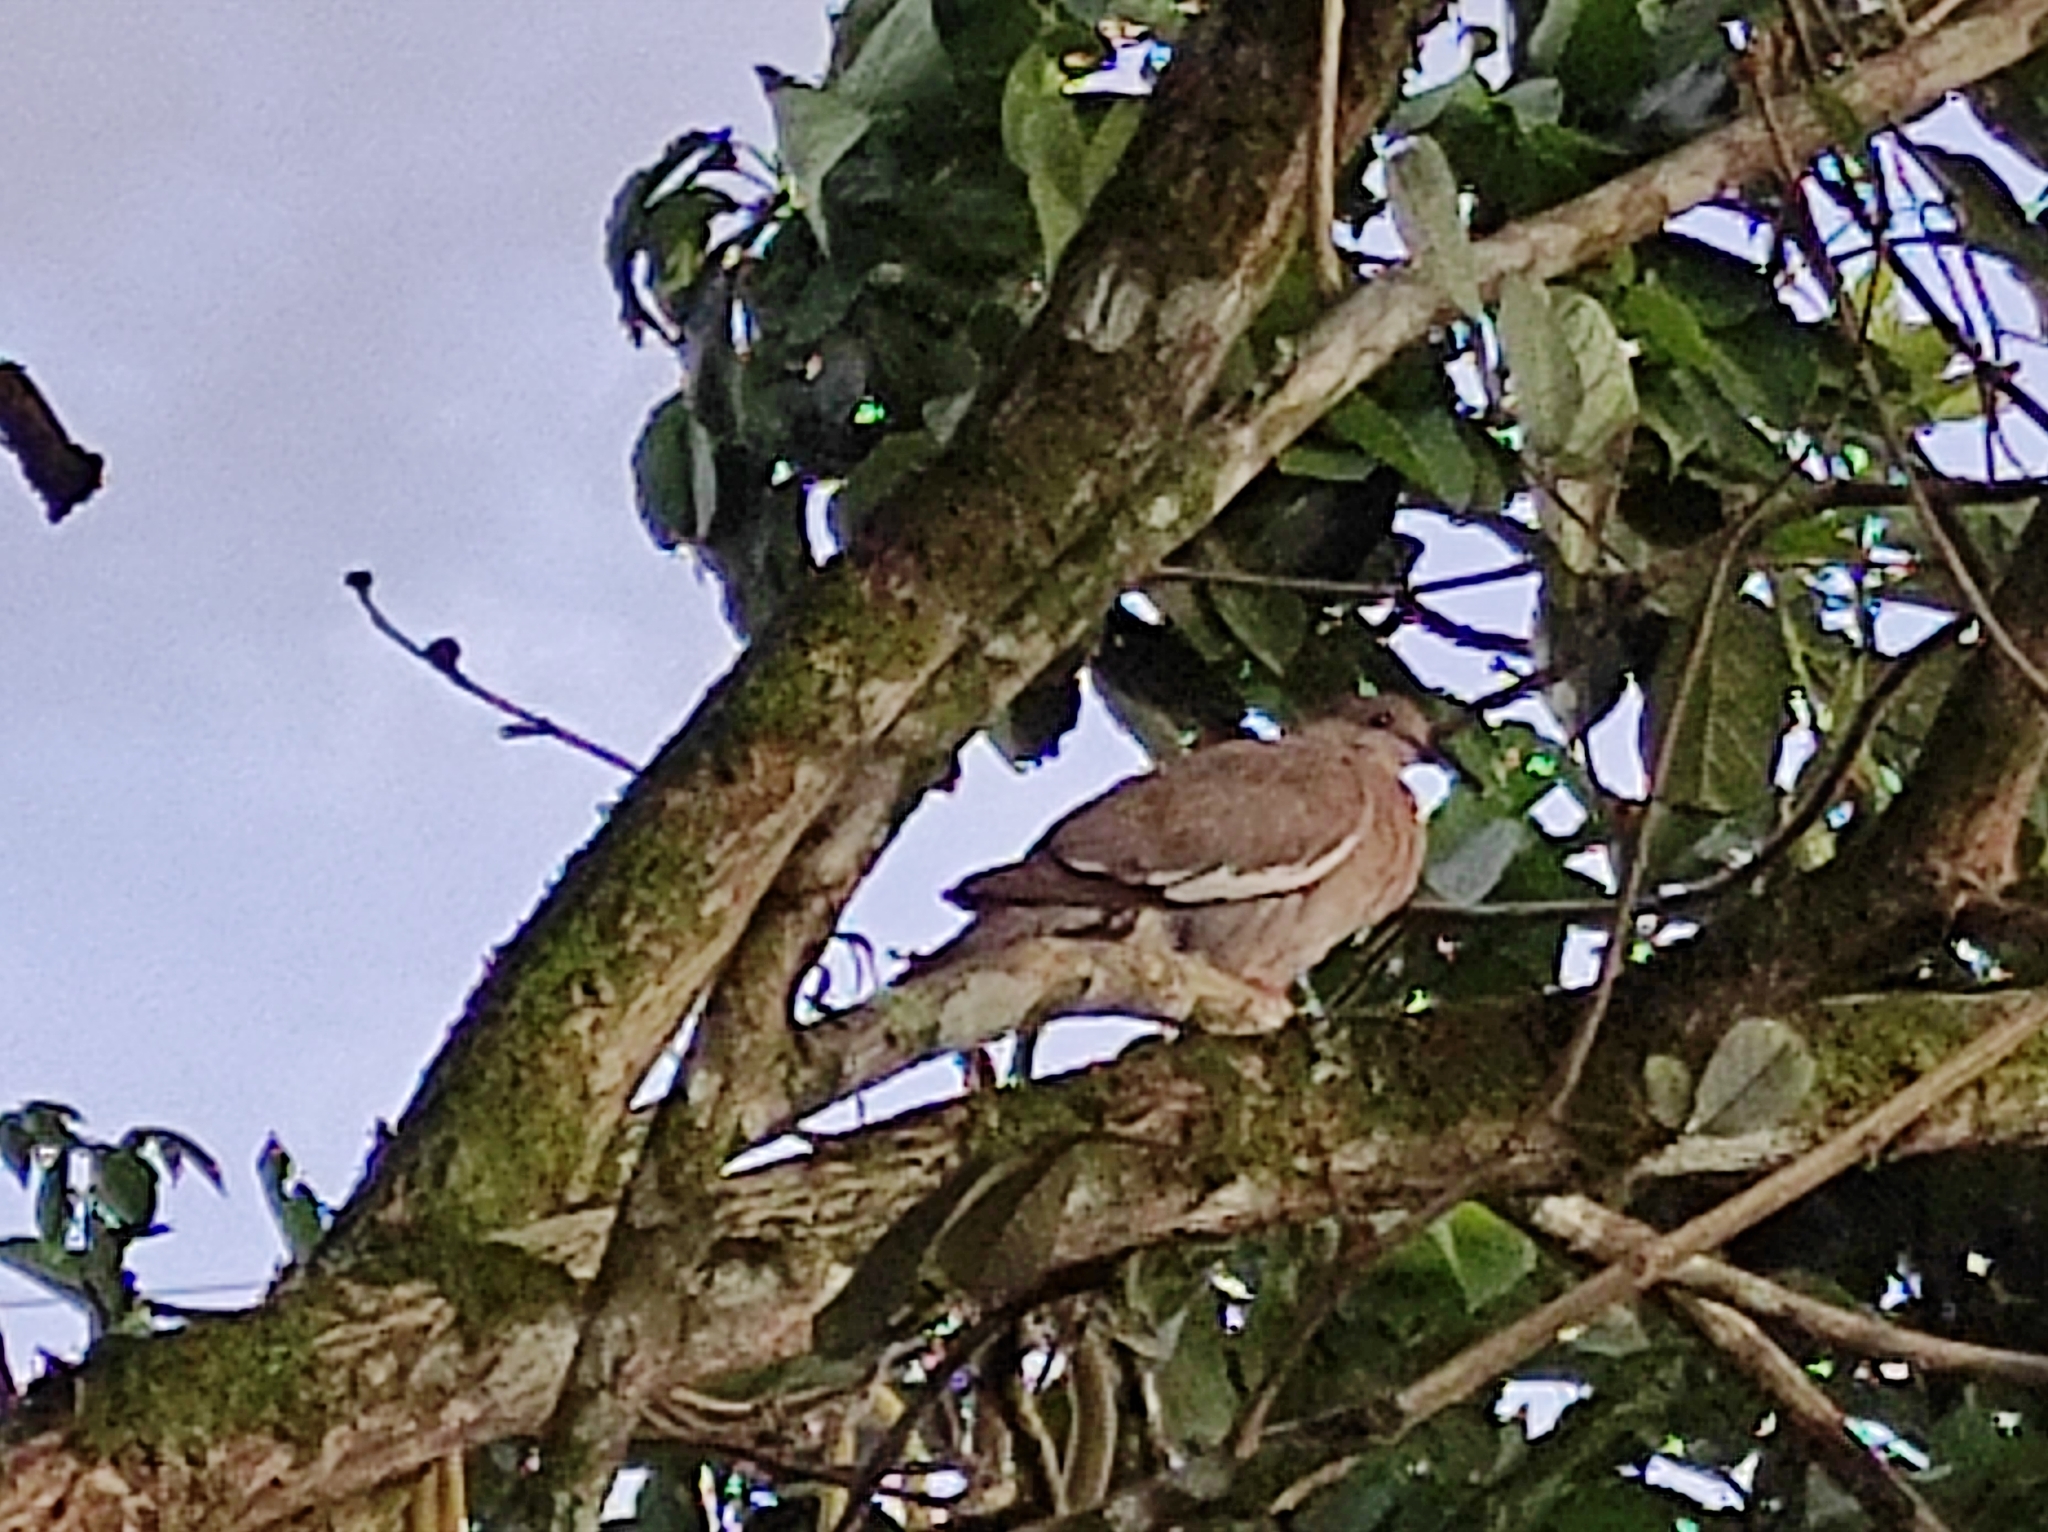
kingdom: Animalia
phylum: Chordata
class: Aves
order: Columbiformes
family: Columbidae
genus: Zenaida
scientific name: Zenaida asiatica
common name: White-winged dove
